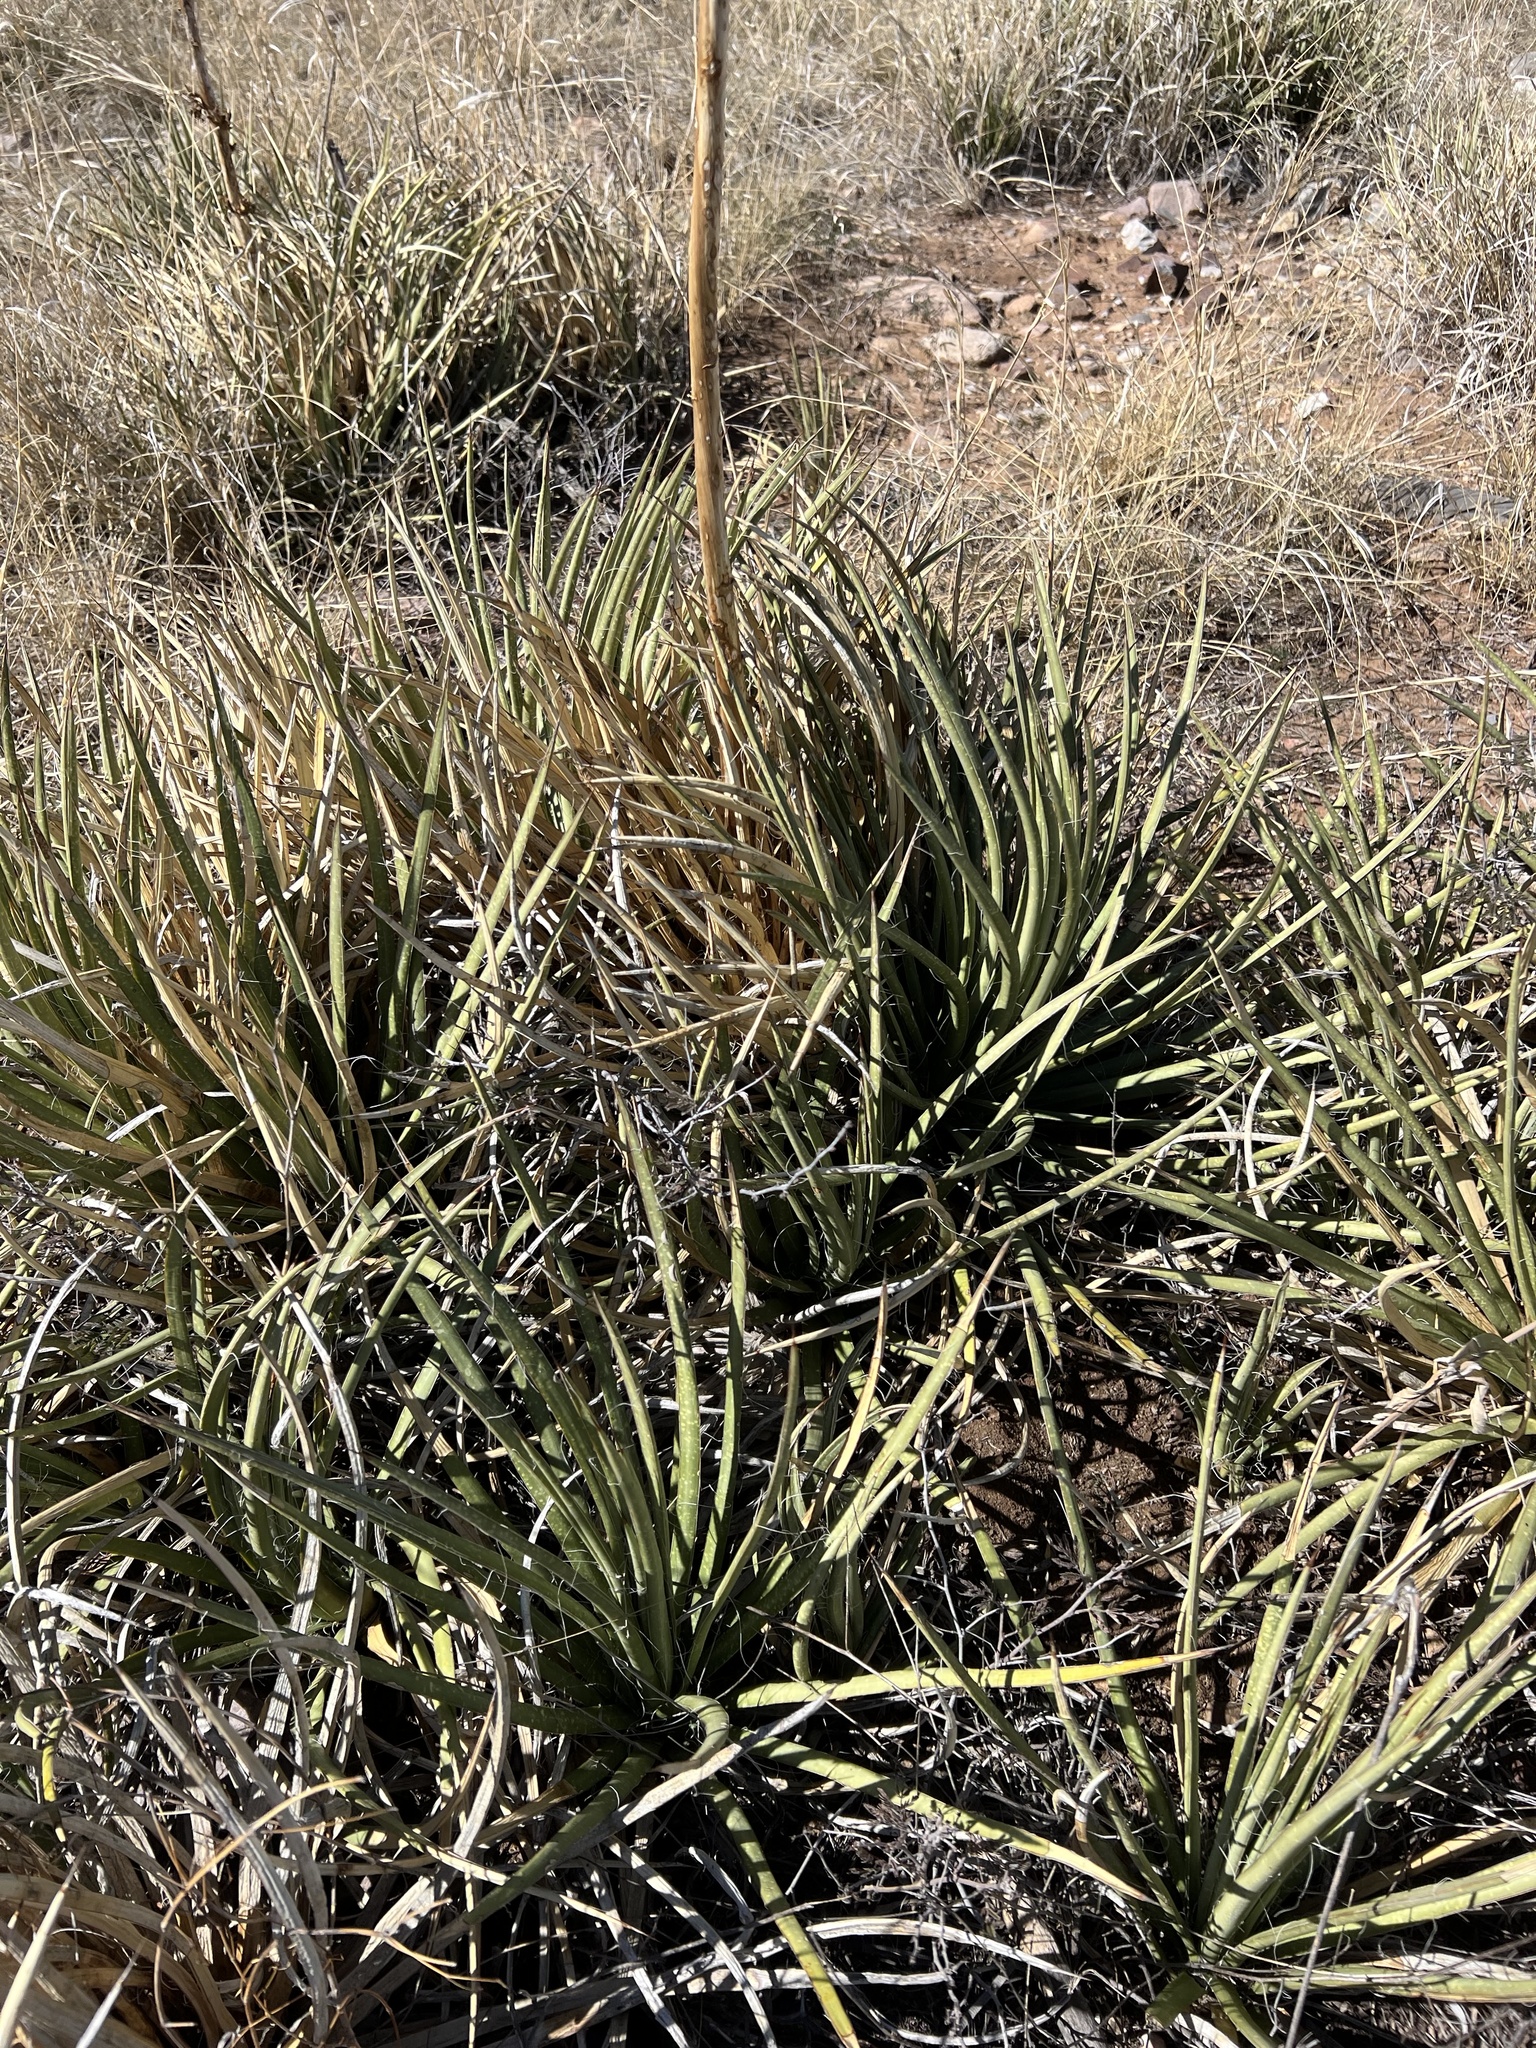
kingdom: Plantae
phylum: Tracheophyta
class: Liliopsida
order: Asparagales
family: Asparagaceae
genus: Agave
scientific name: Agave schottii
